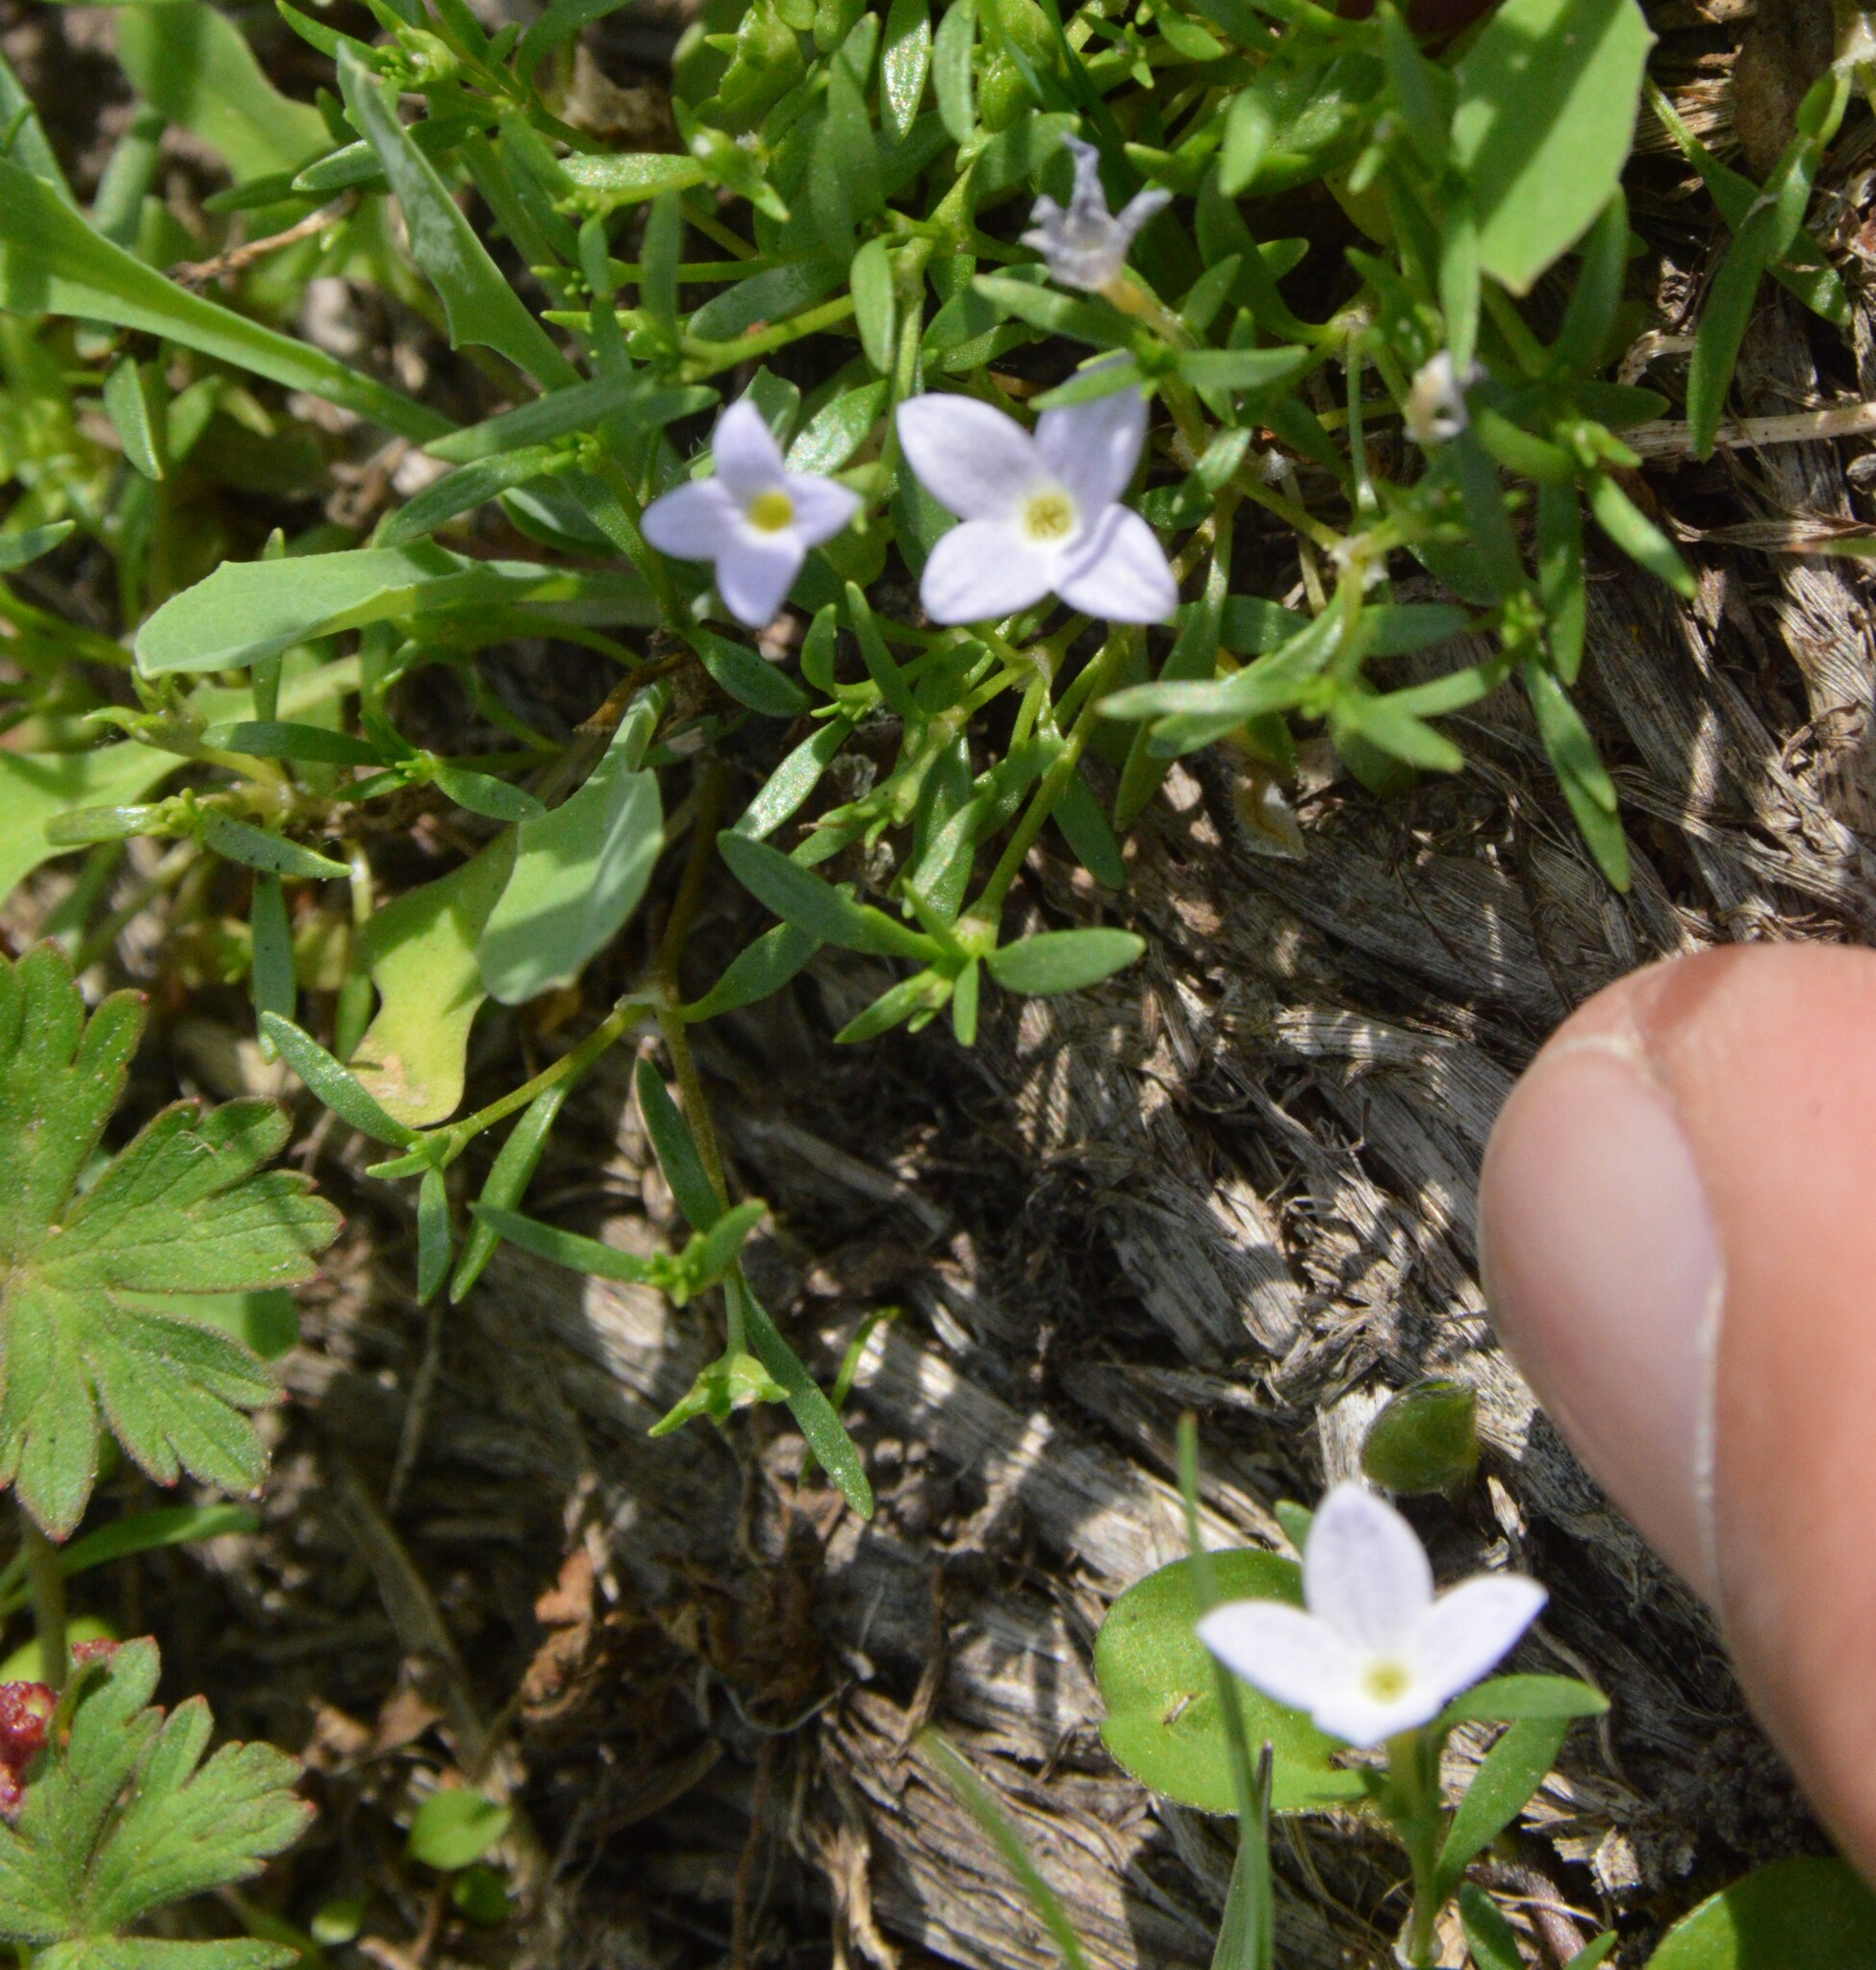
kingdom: Plantae
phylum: Tracheophyta
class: Magnoliopsida
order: Gentianales
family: Rubiaceae
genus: Houstonia
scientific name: Houstonia rosea
